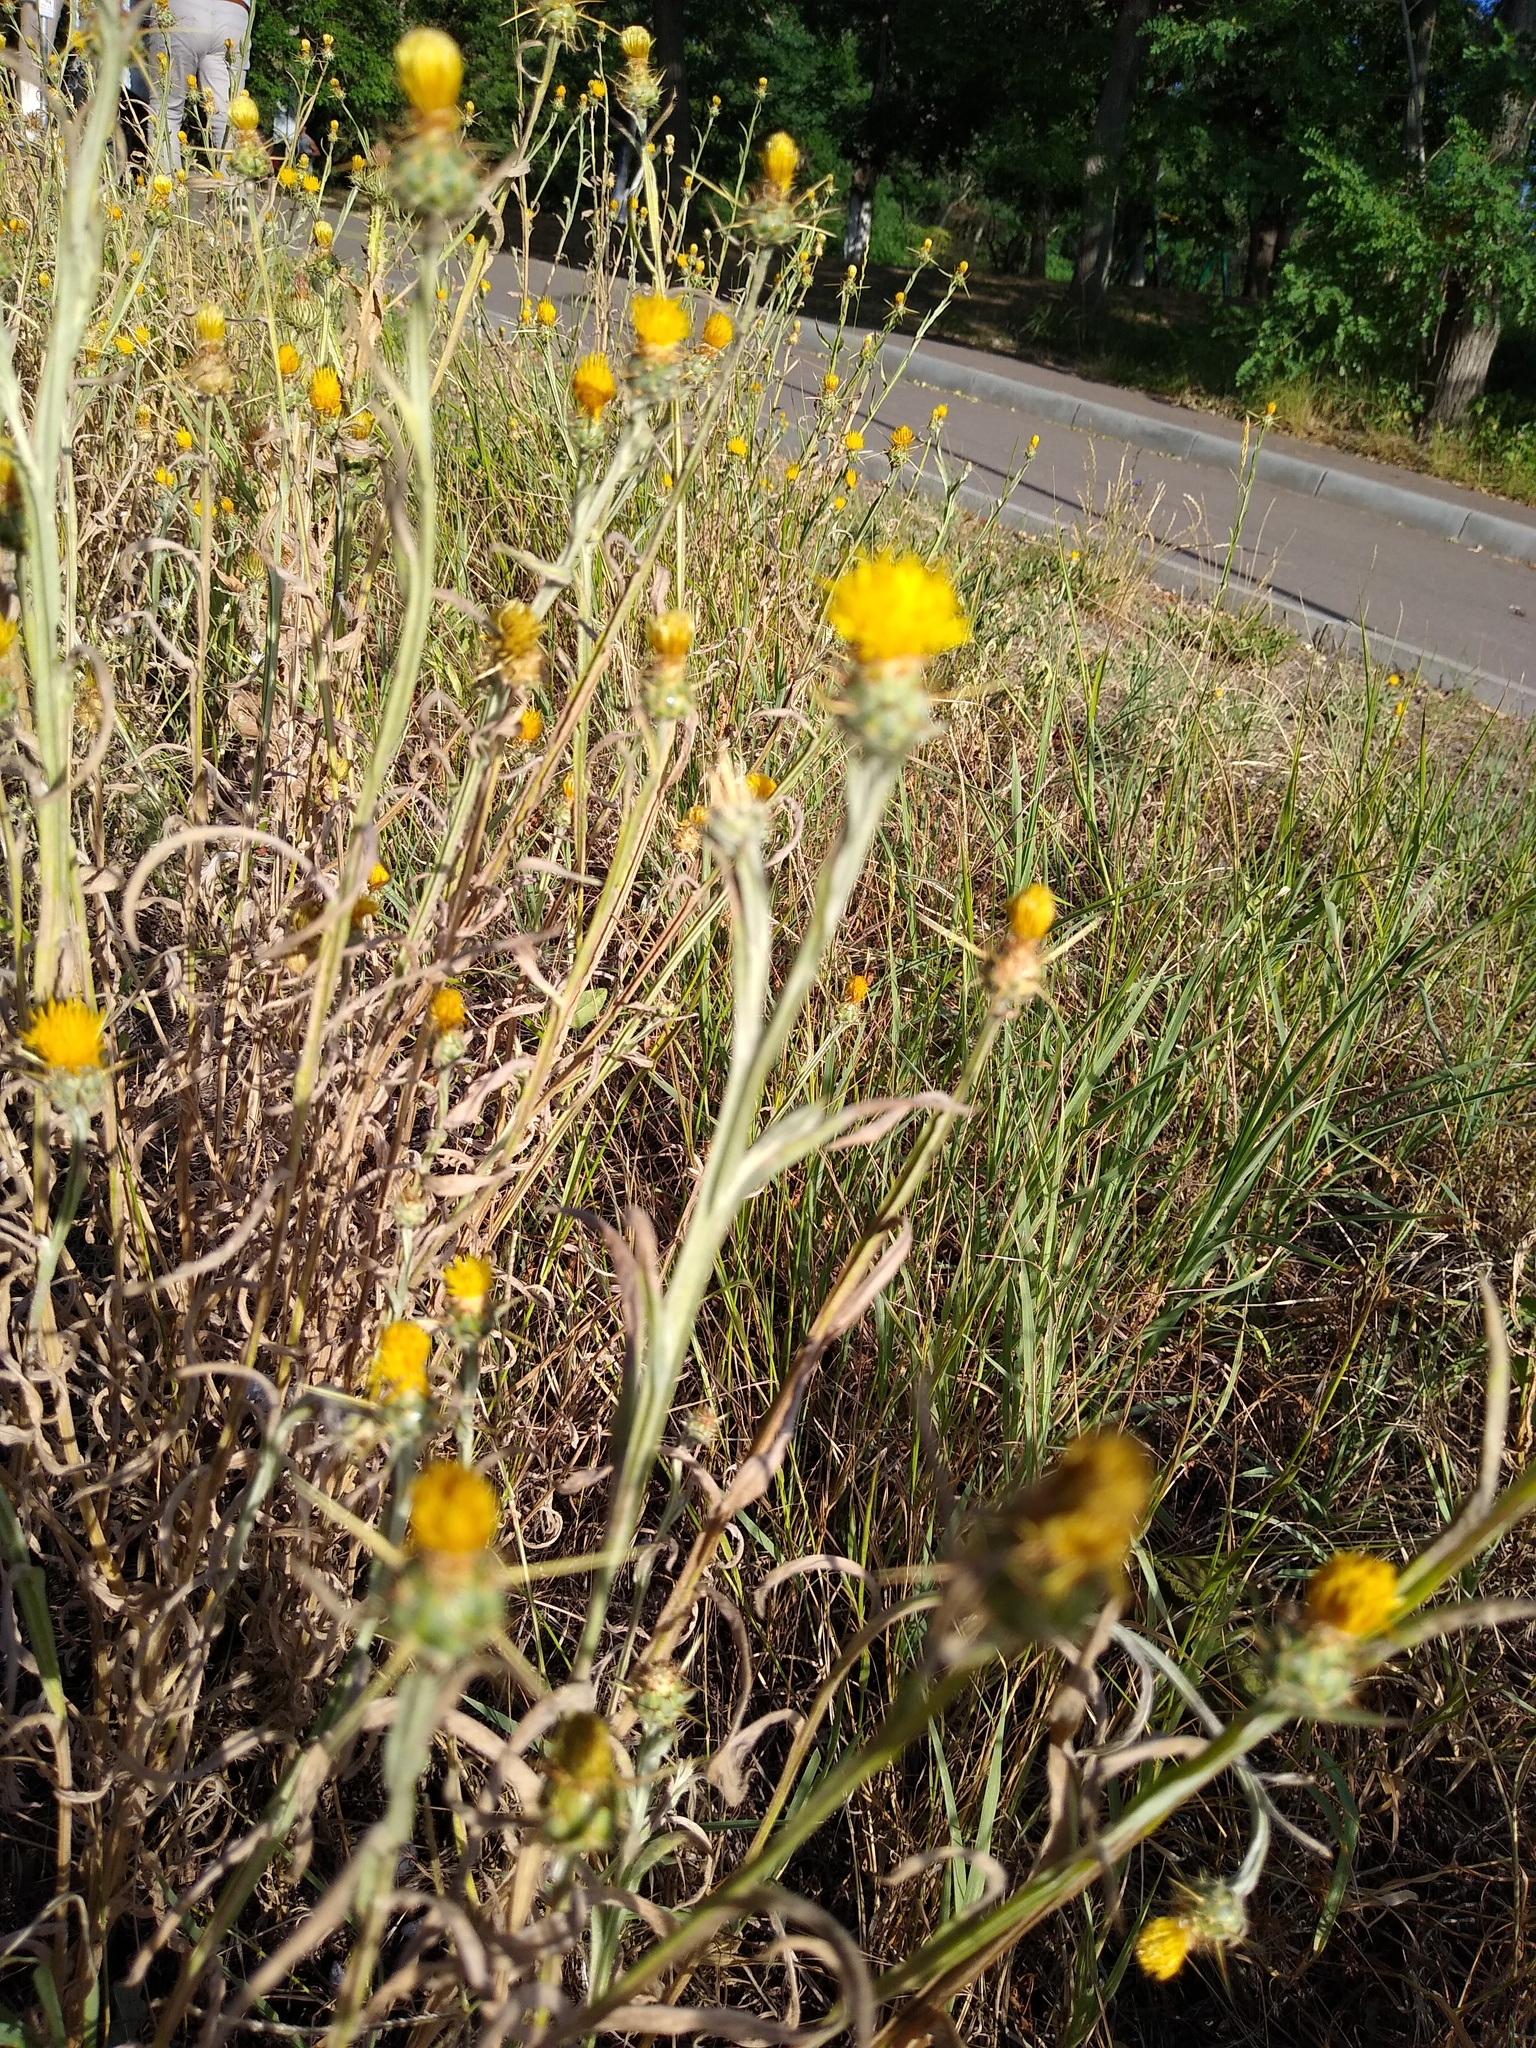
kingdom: Plantae
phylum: Tracheophyta
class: Magnoliopsida
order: Asterales
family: Asteraceae
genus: Centaurea
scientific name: Centaurea solstitialis
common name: Yellow star-thistle
